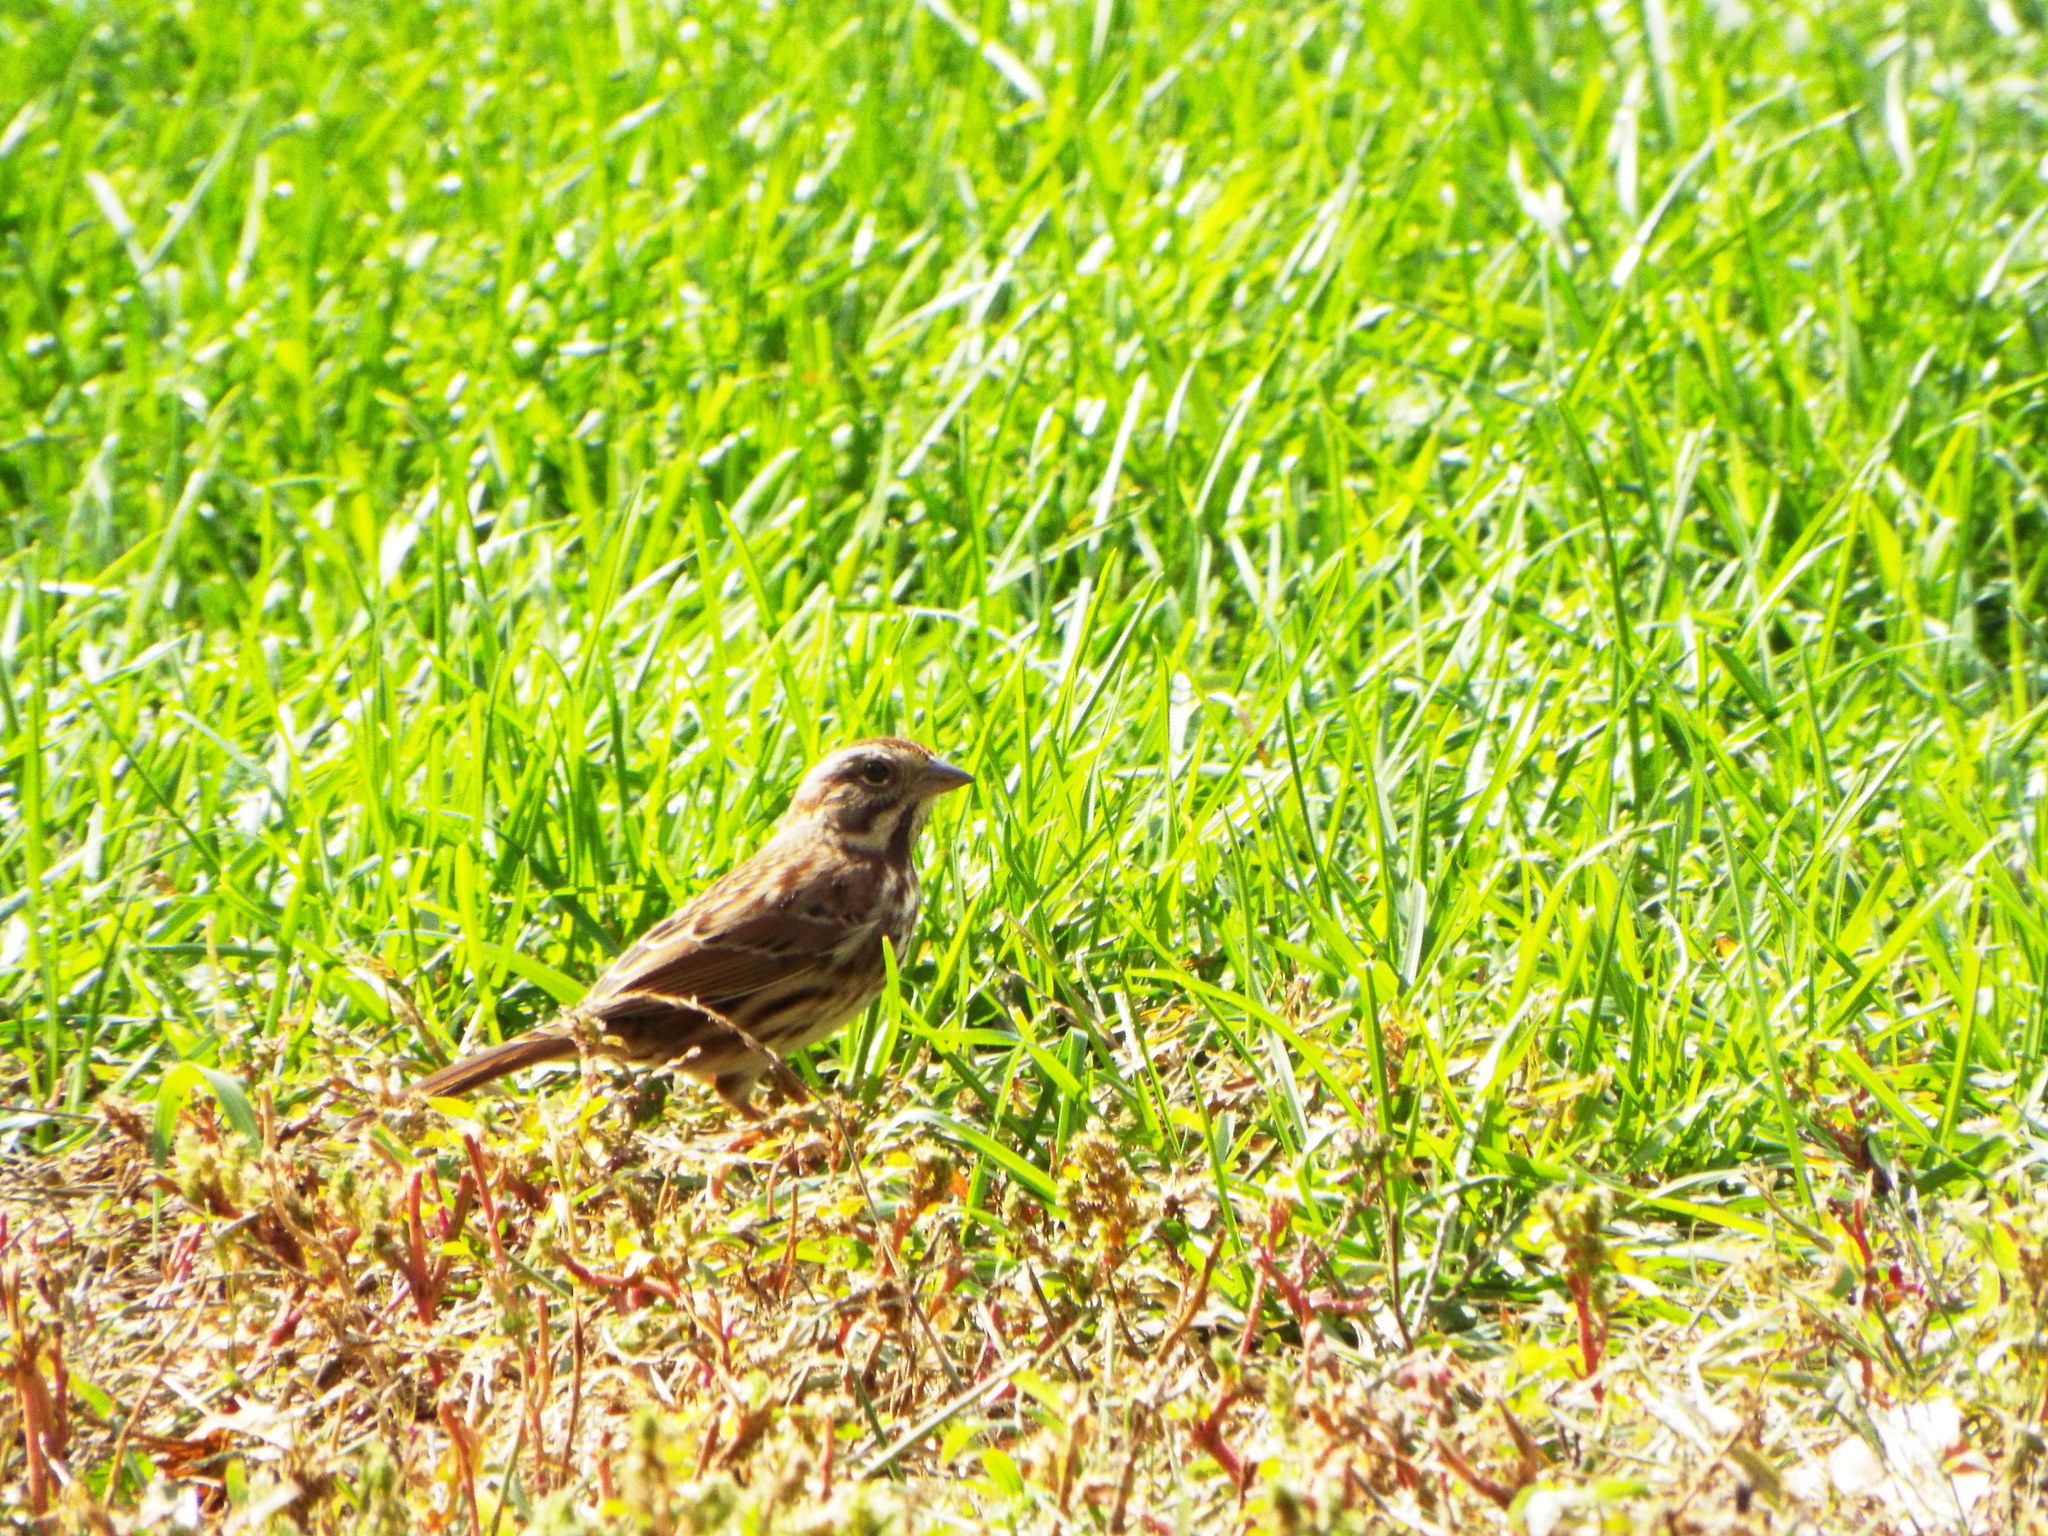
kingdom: Animalia
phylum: Chordata
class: Aves
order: Passeriformes
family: Passerellidae
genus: Melospiza
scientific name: Melospiza melodia
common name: Song sparrow
